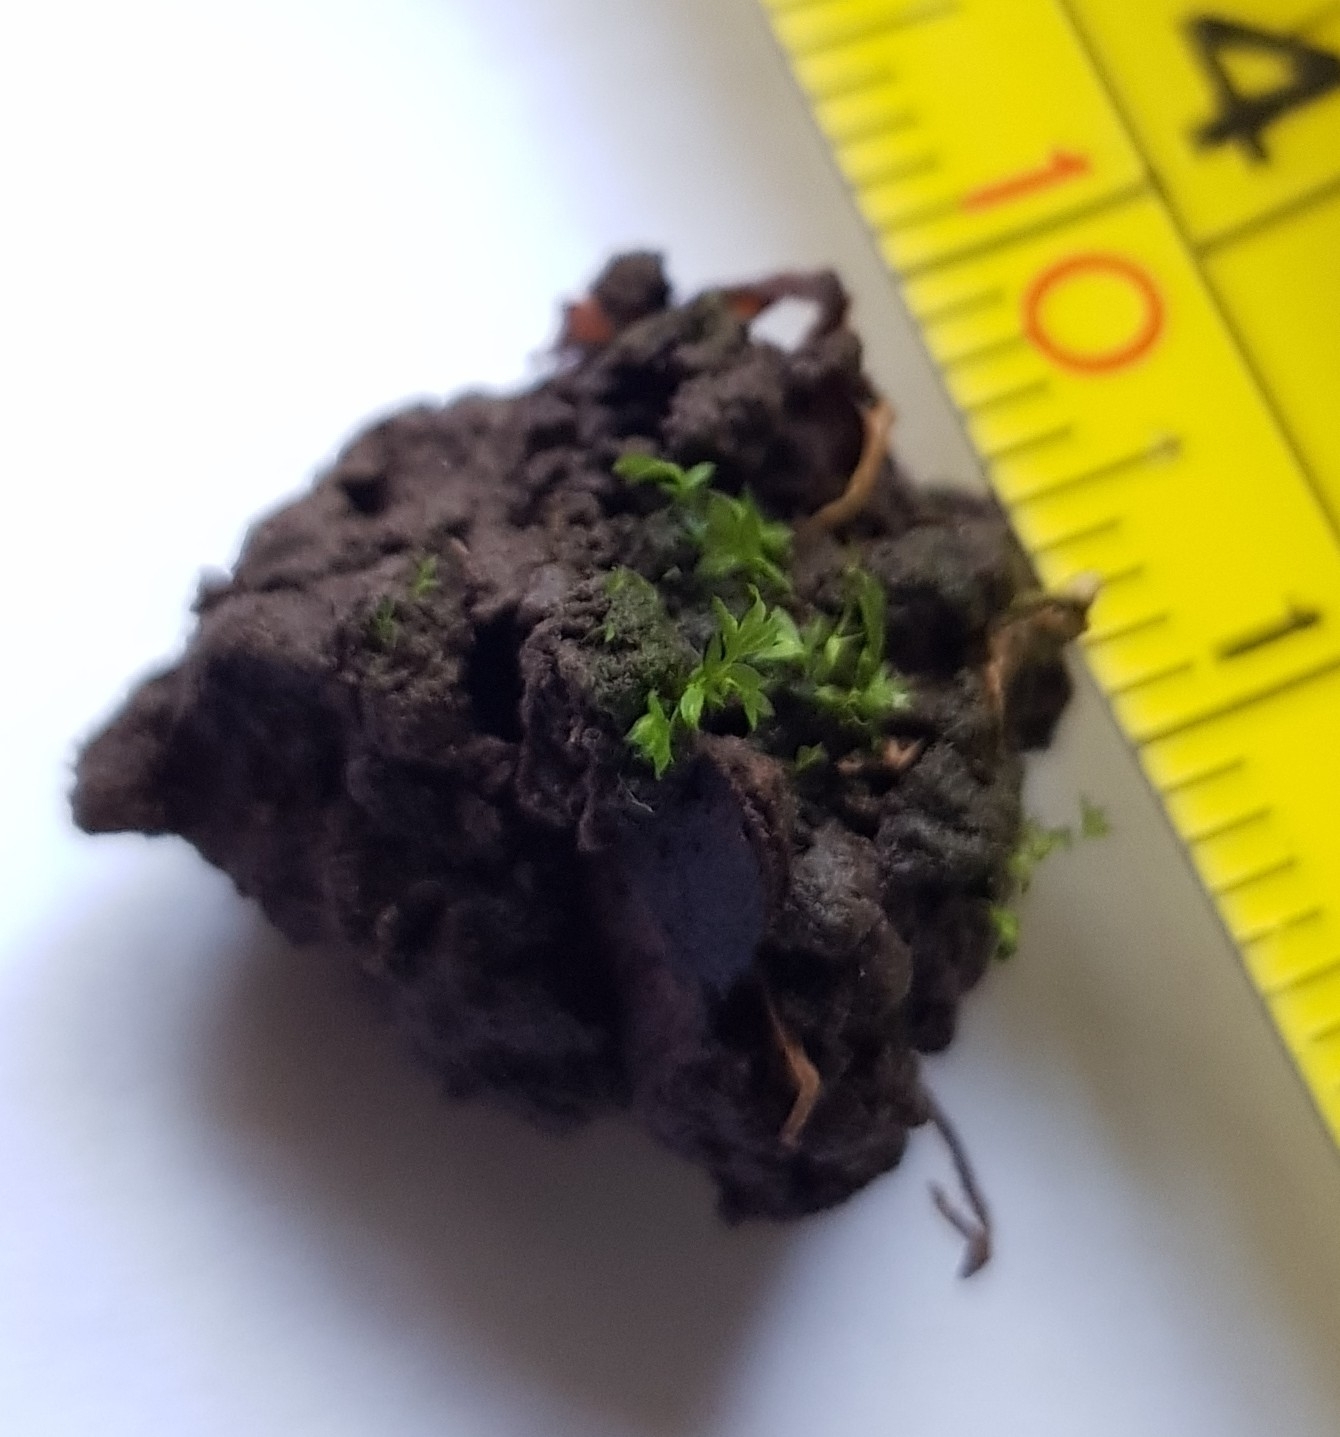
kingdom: Plantae
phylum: Bryophyta
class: Bryopsida
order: Dicranales
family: Fissidentaceae
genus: Fissidens
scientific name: Fissidens viridulus
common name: Green pocket-moss
